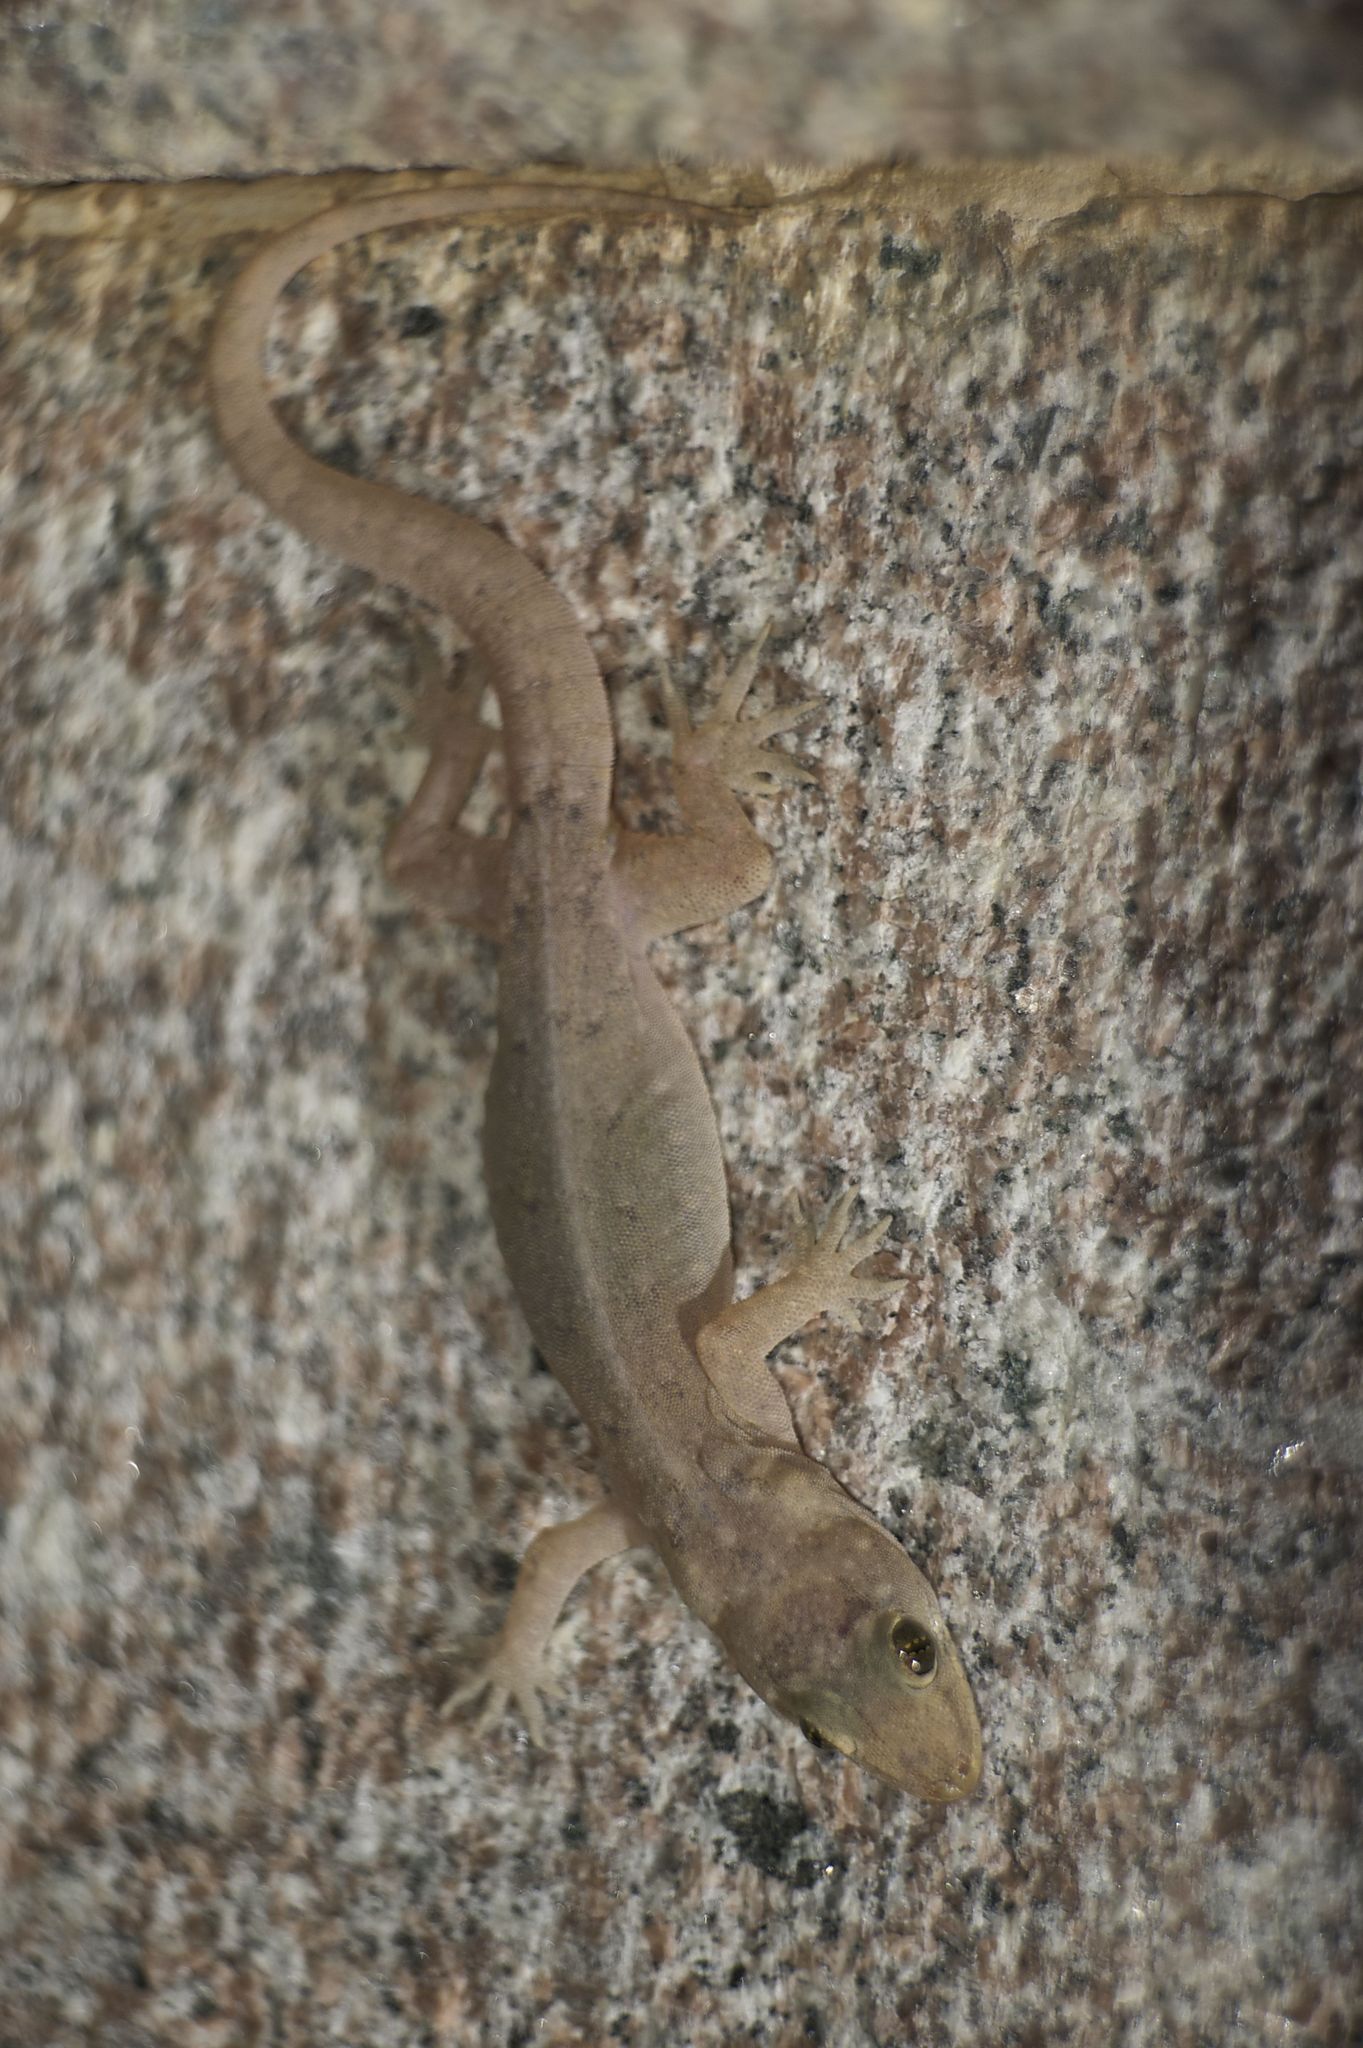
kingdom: Animalia
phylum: Chordata
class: Squamata
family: Gekkonidae
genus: Hemidactylus
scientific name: Hemidactylus bowringii
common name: Oriental leaf-toed gecko
